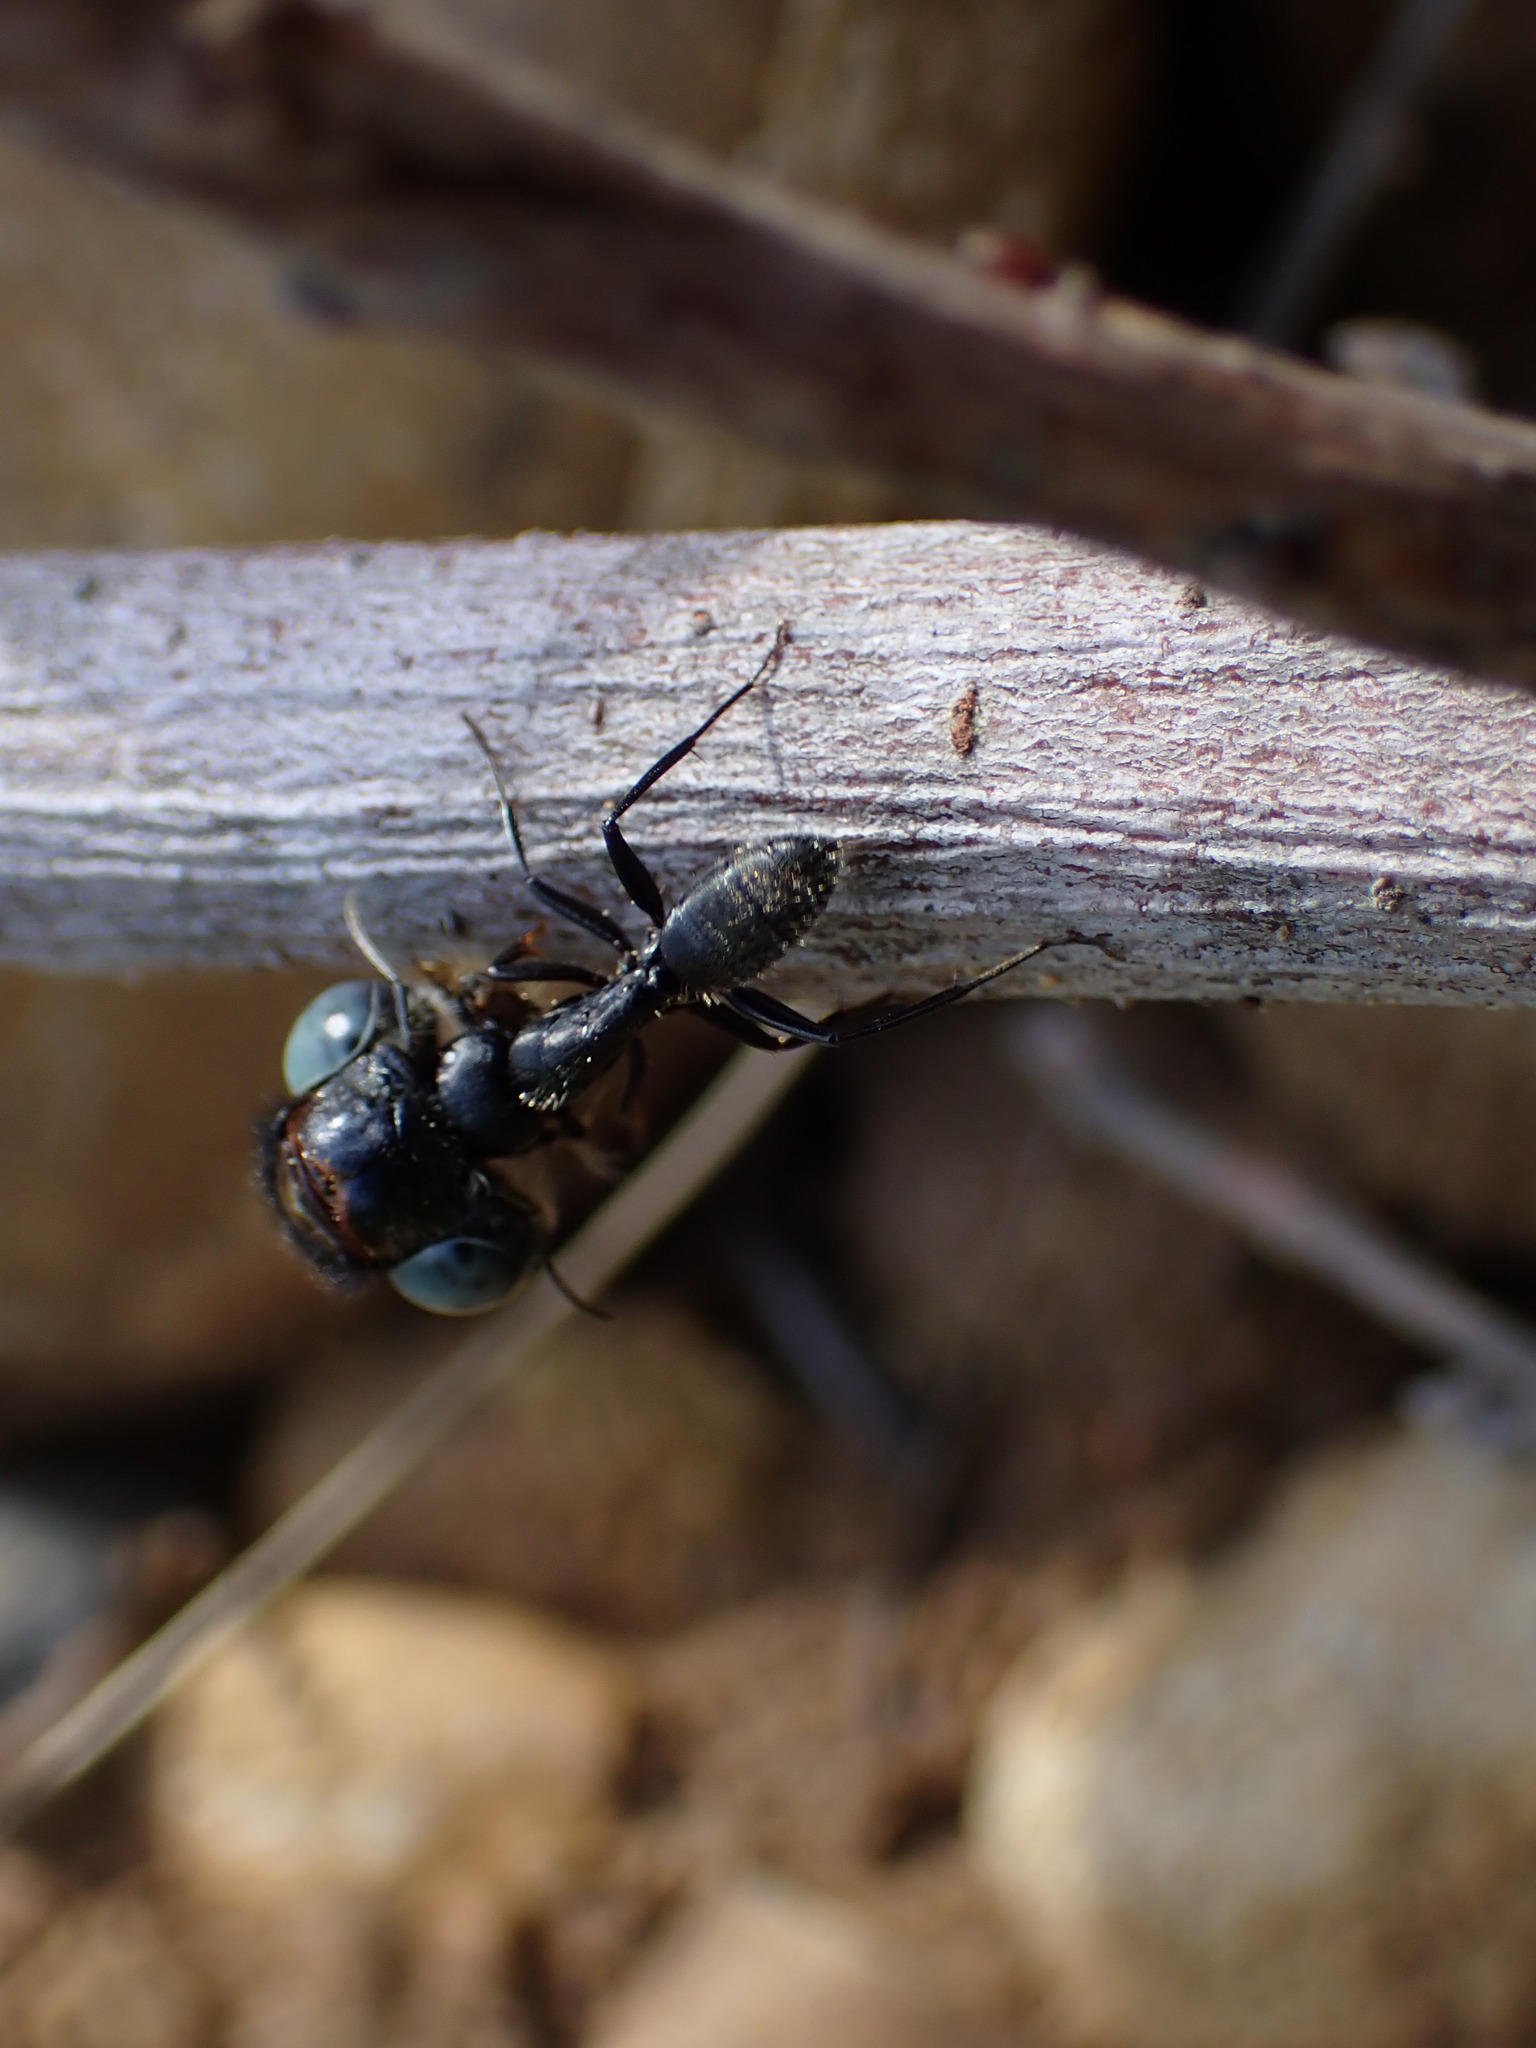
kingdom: Animalia
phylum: Arthropoda
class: Insecta
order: Hymenoptera
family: Formicidae
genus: Camponotus
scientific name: Camponotus vagus
